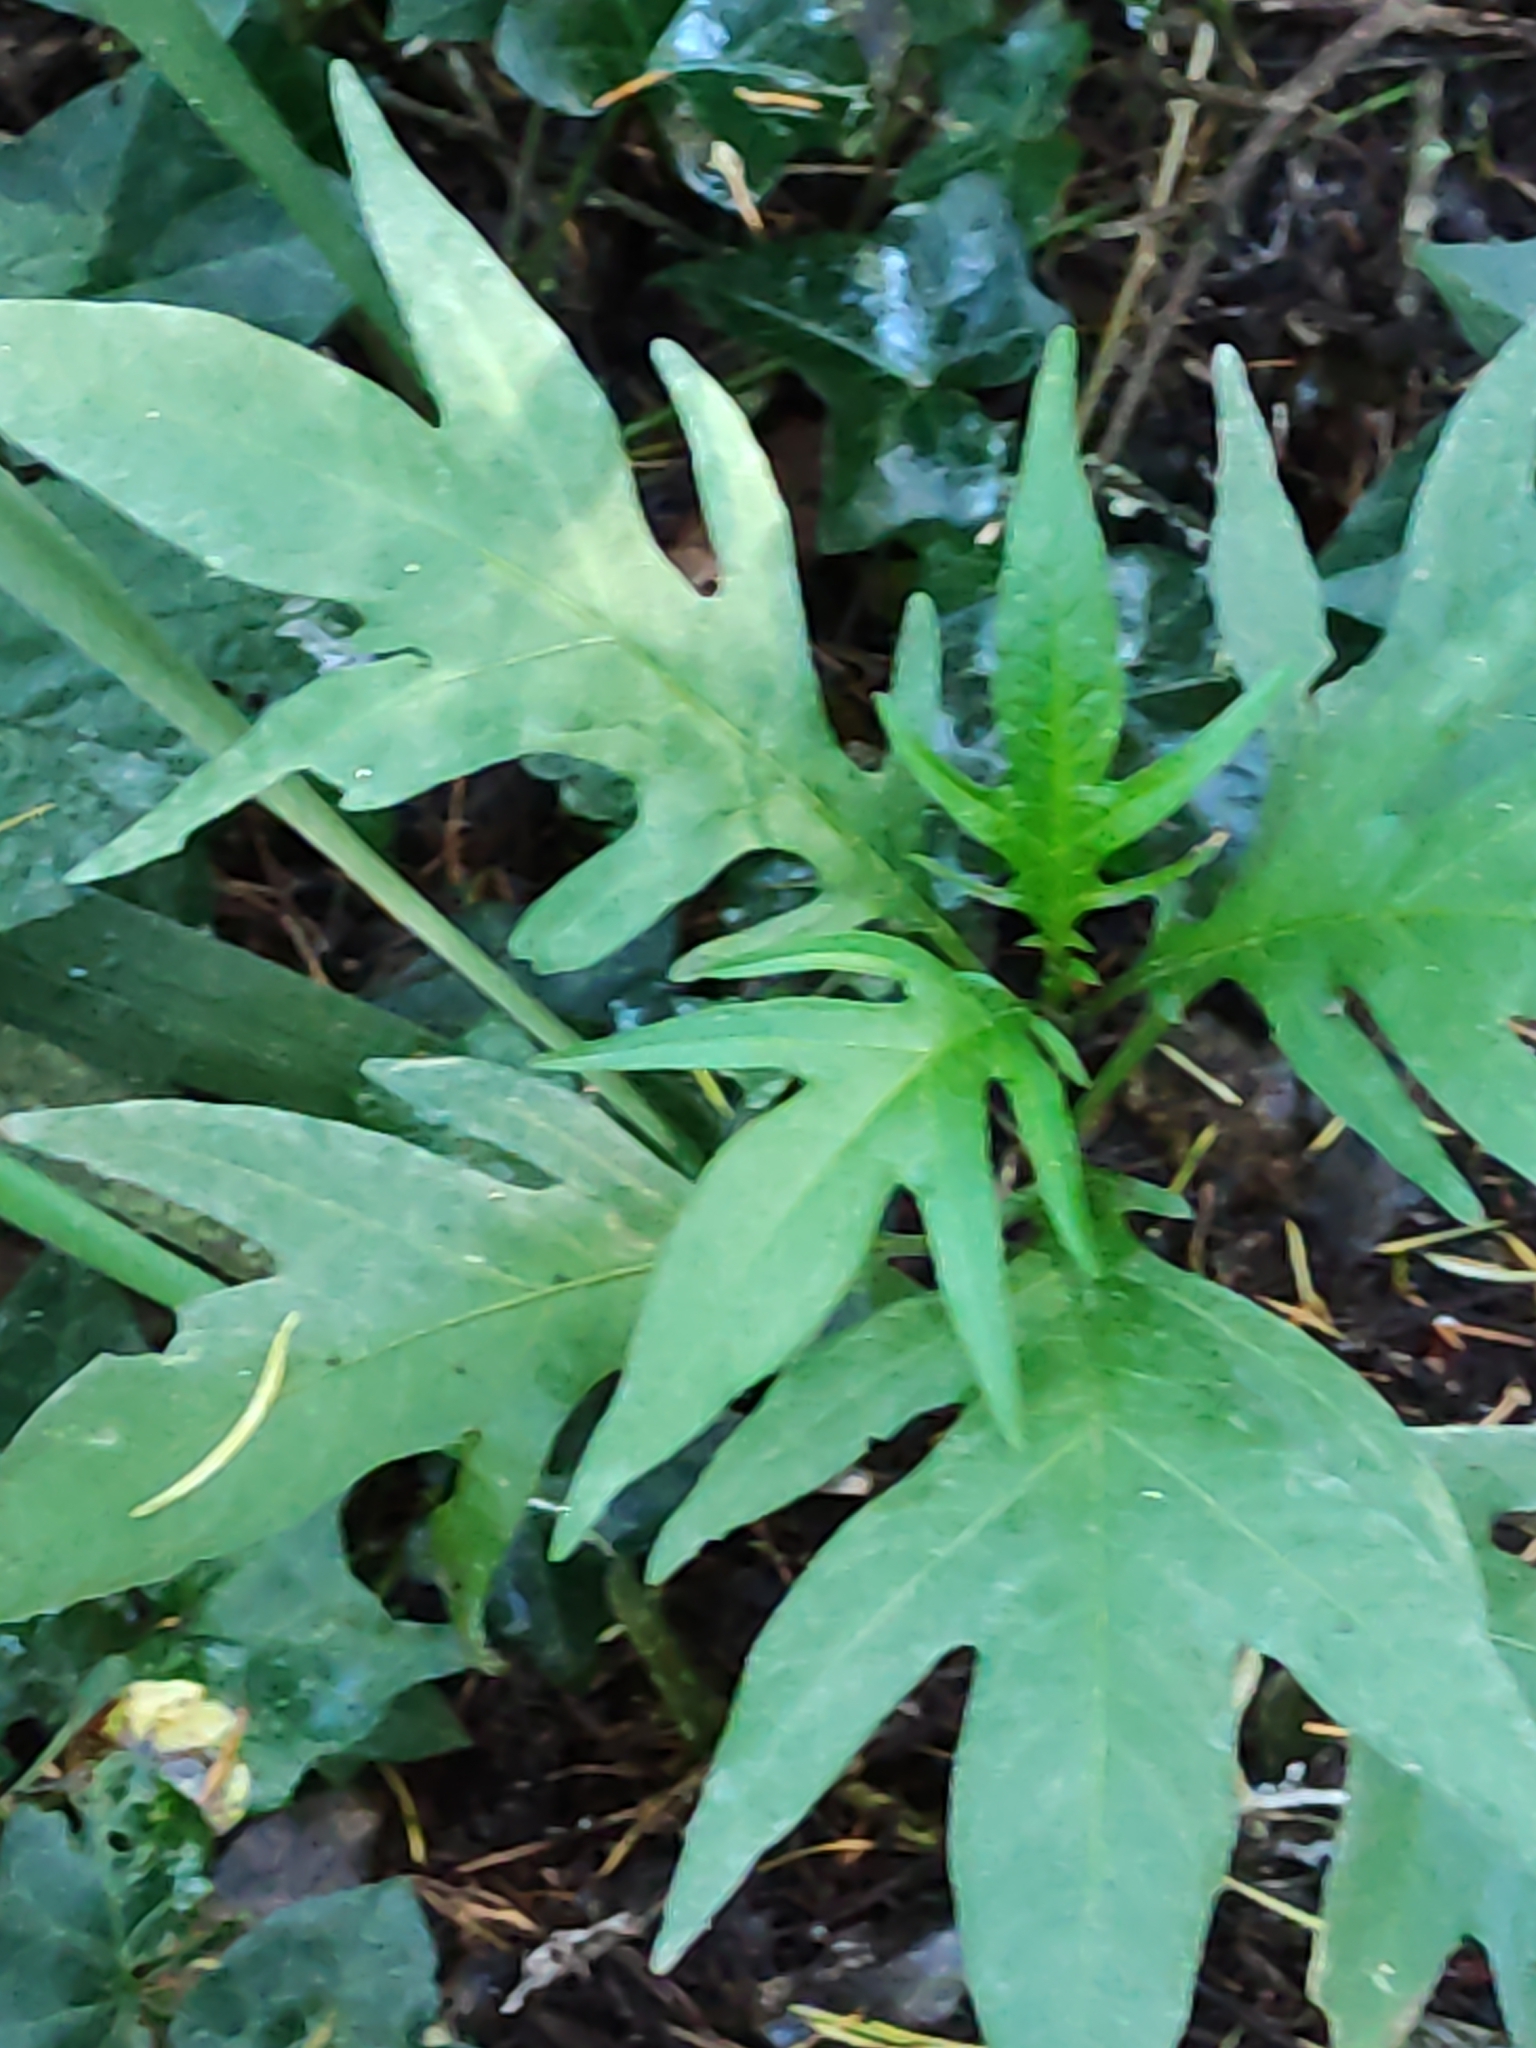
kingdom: Plantae
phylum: Tracheophyta
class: Magnoliopsida
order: Solanales
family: Solanaceae
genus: Solanum
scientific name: Solanum
